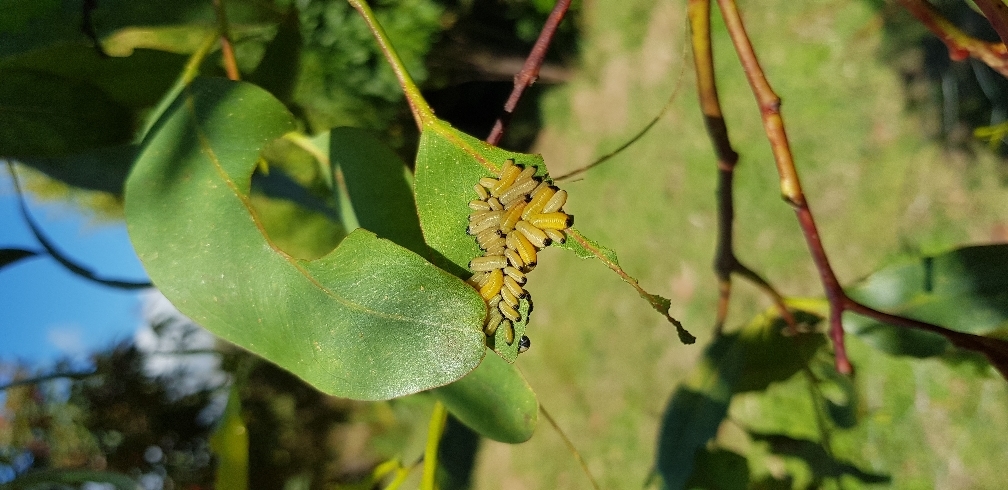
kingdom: Animalia
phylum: Arthropoda
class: Insecta
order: Coleoptera
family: Chrysomelidae
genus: Paropsisterna
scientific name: Paropsisterna cloelia
